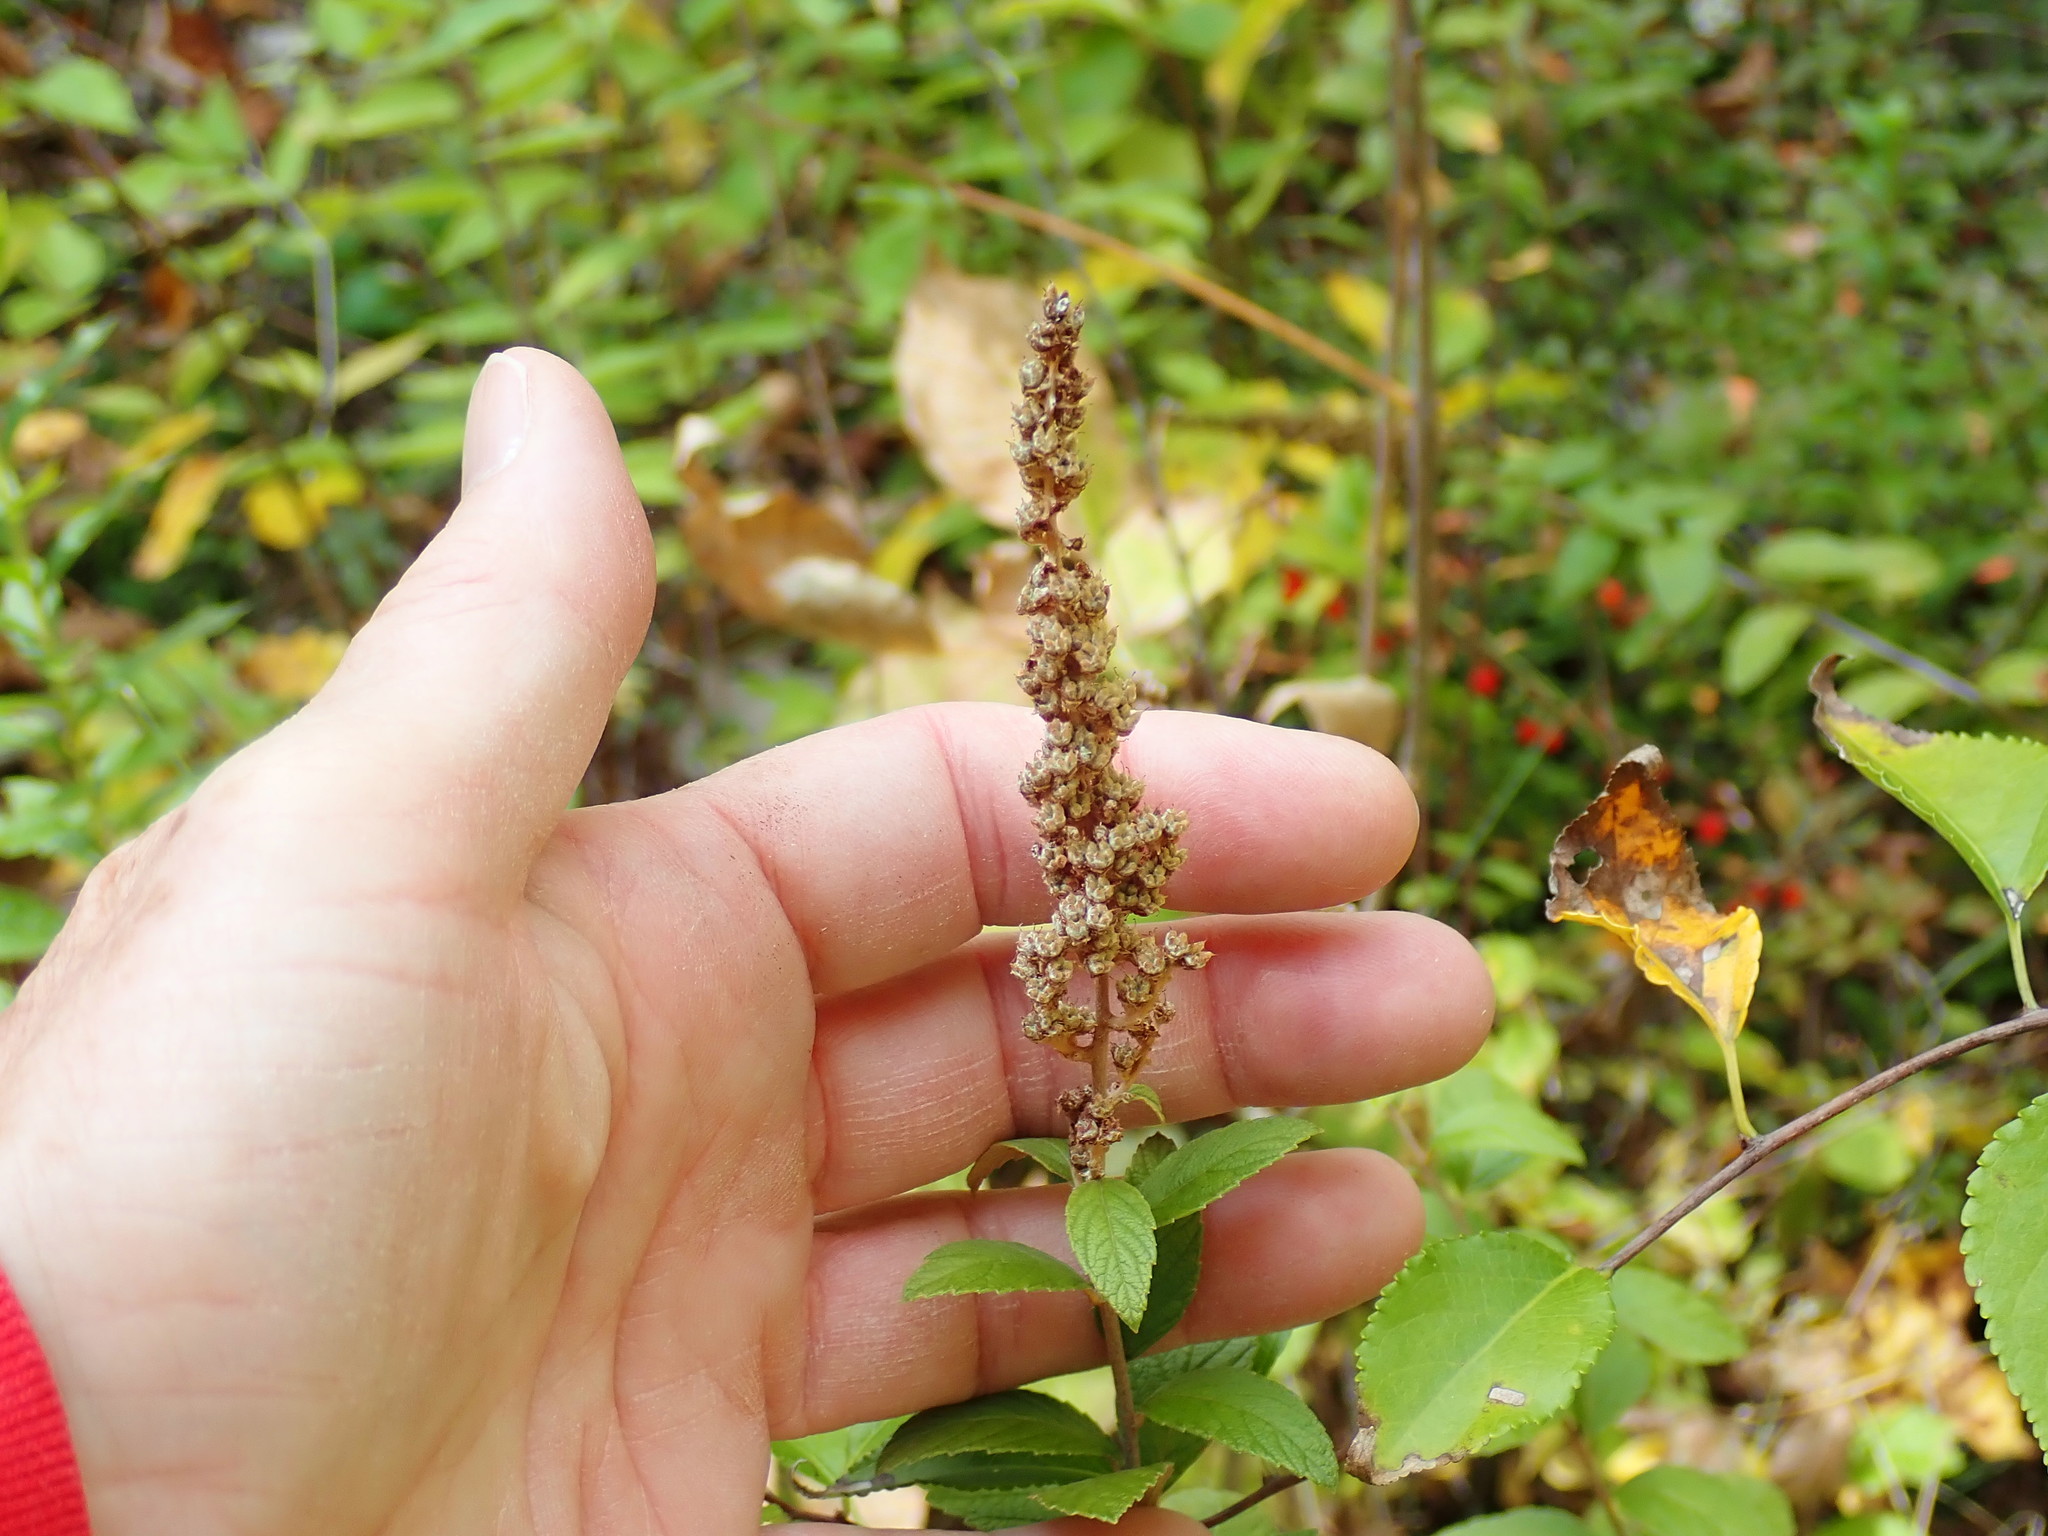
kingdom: Plantae
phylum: Tracheophyta
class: Magnoliopsida
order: Rosales
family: Rosaceae
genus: Spiraea
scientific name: Spiraea tomentosa
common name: Hardhack
